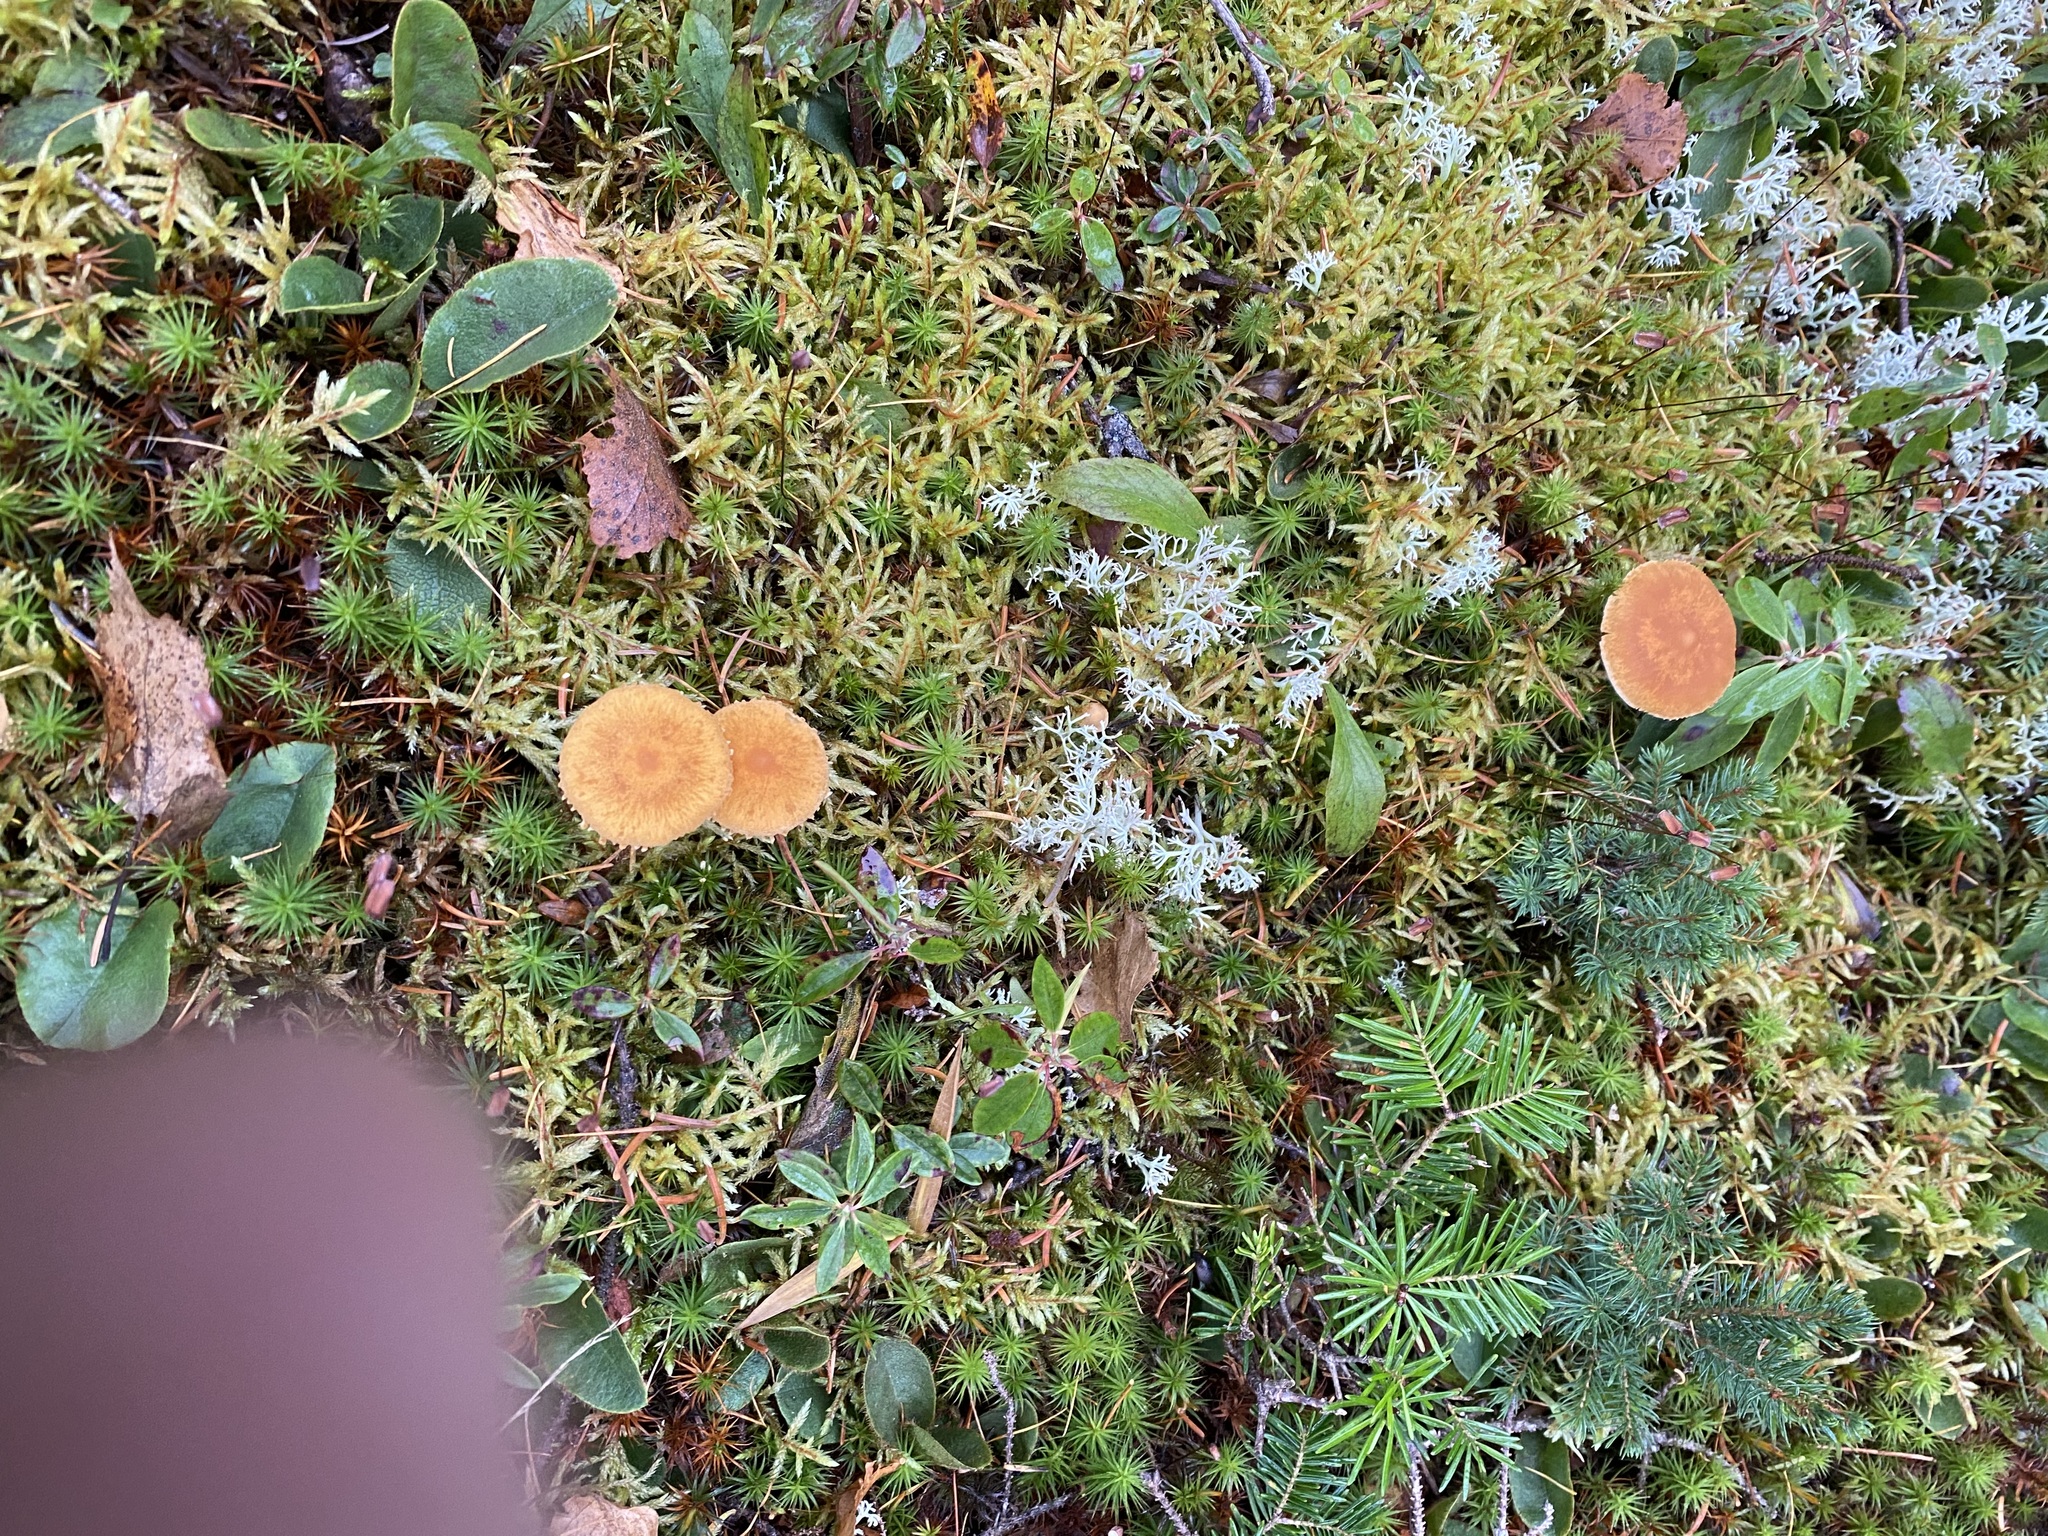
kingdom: Fungi
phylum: Basidiomycota
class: Agaricomycetes
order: Agaricales
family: Tricholomataceae
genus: Cystoderma
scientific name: Cystoderma amianthinum
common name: Earthy powdercap
